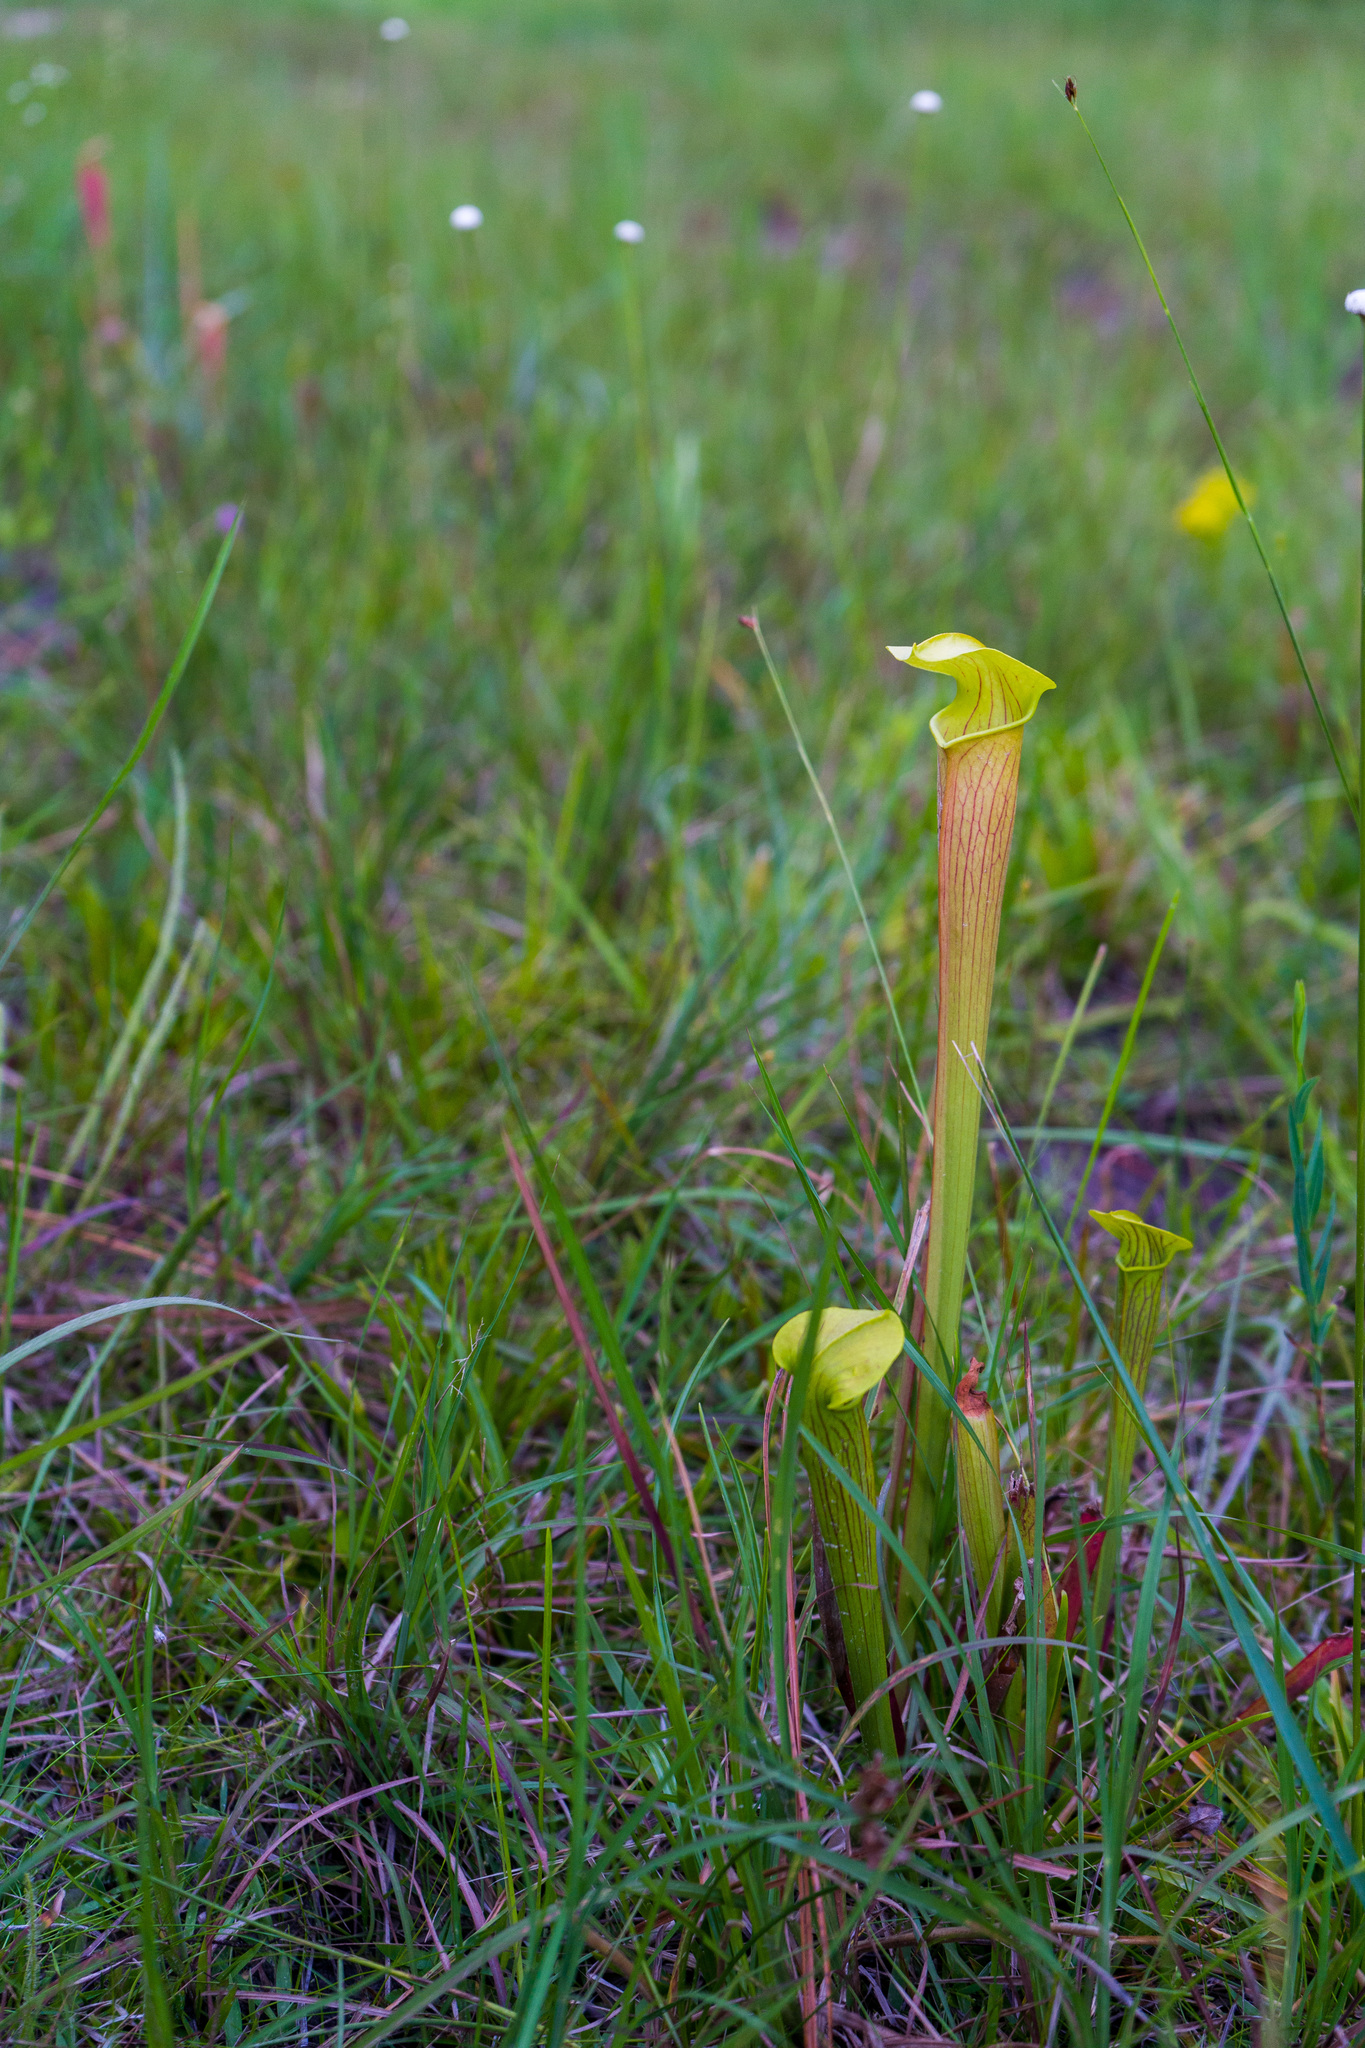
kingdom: Plantae
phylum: Tracheophyta
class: Magnoliopsida
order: Ericales
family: Sarraceniaceae
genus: Sarracenia
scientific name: Sarracenia alata
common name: Yellow trumpets
